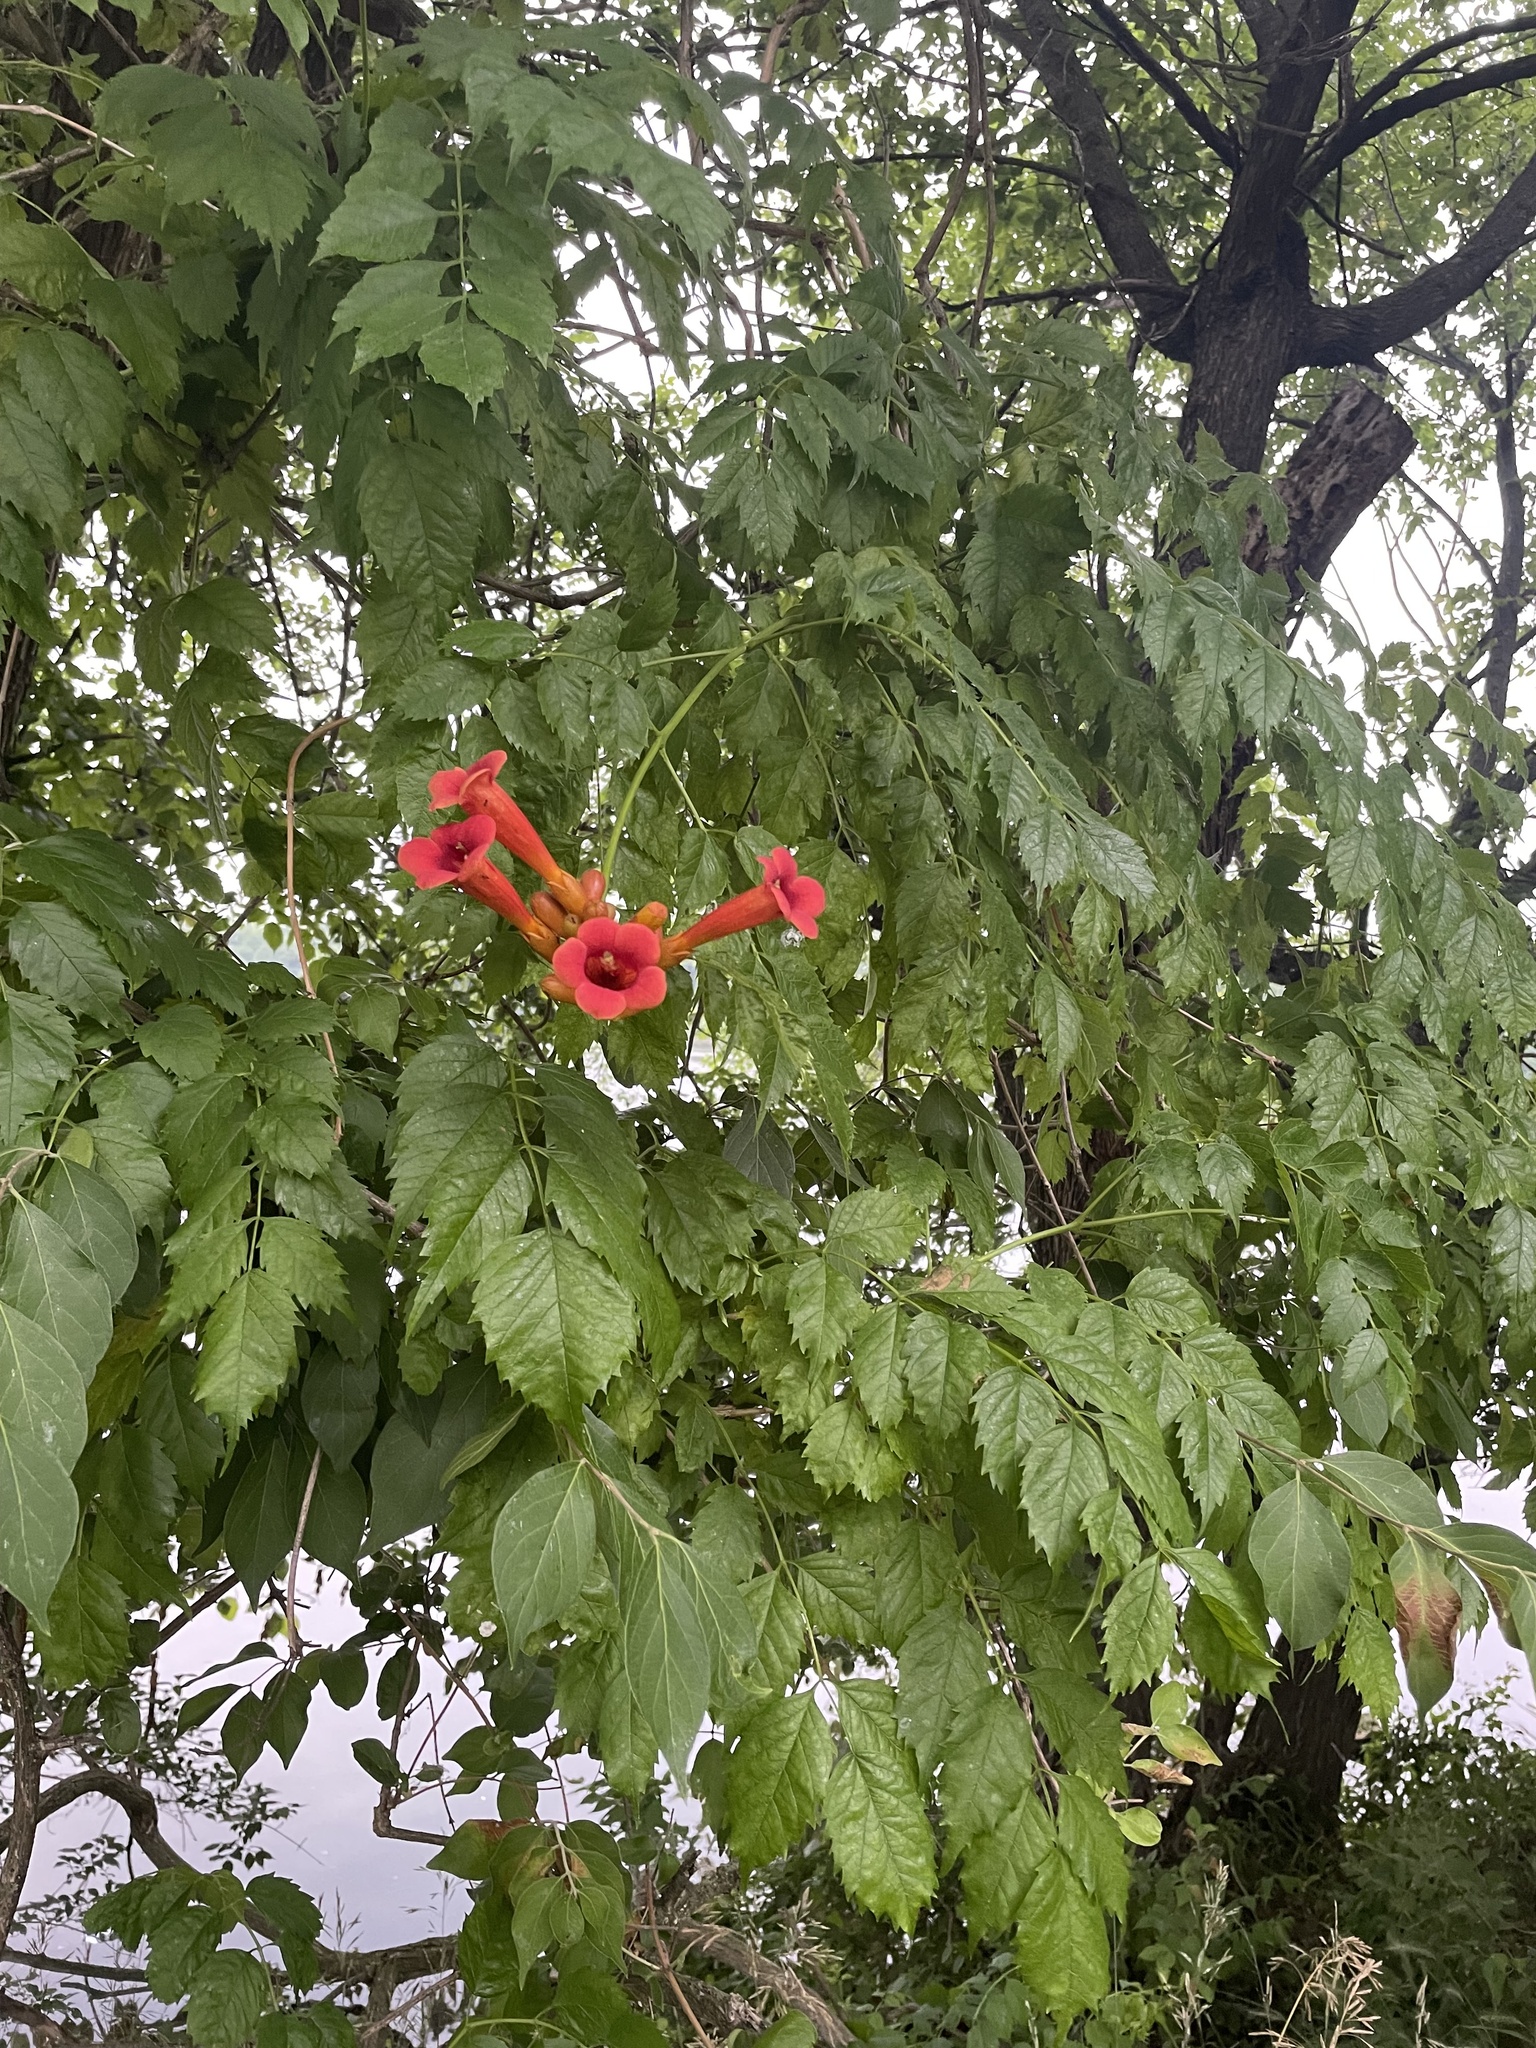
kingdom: Plantae
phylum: Tracheophyta
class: Magnoliopsida
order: Lamiales
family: Bignoniaceae
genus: Campsis
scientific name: Campsis radicans
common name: Trumpet-creeper
